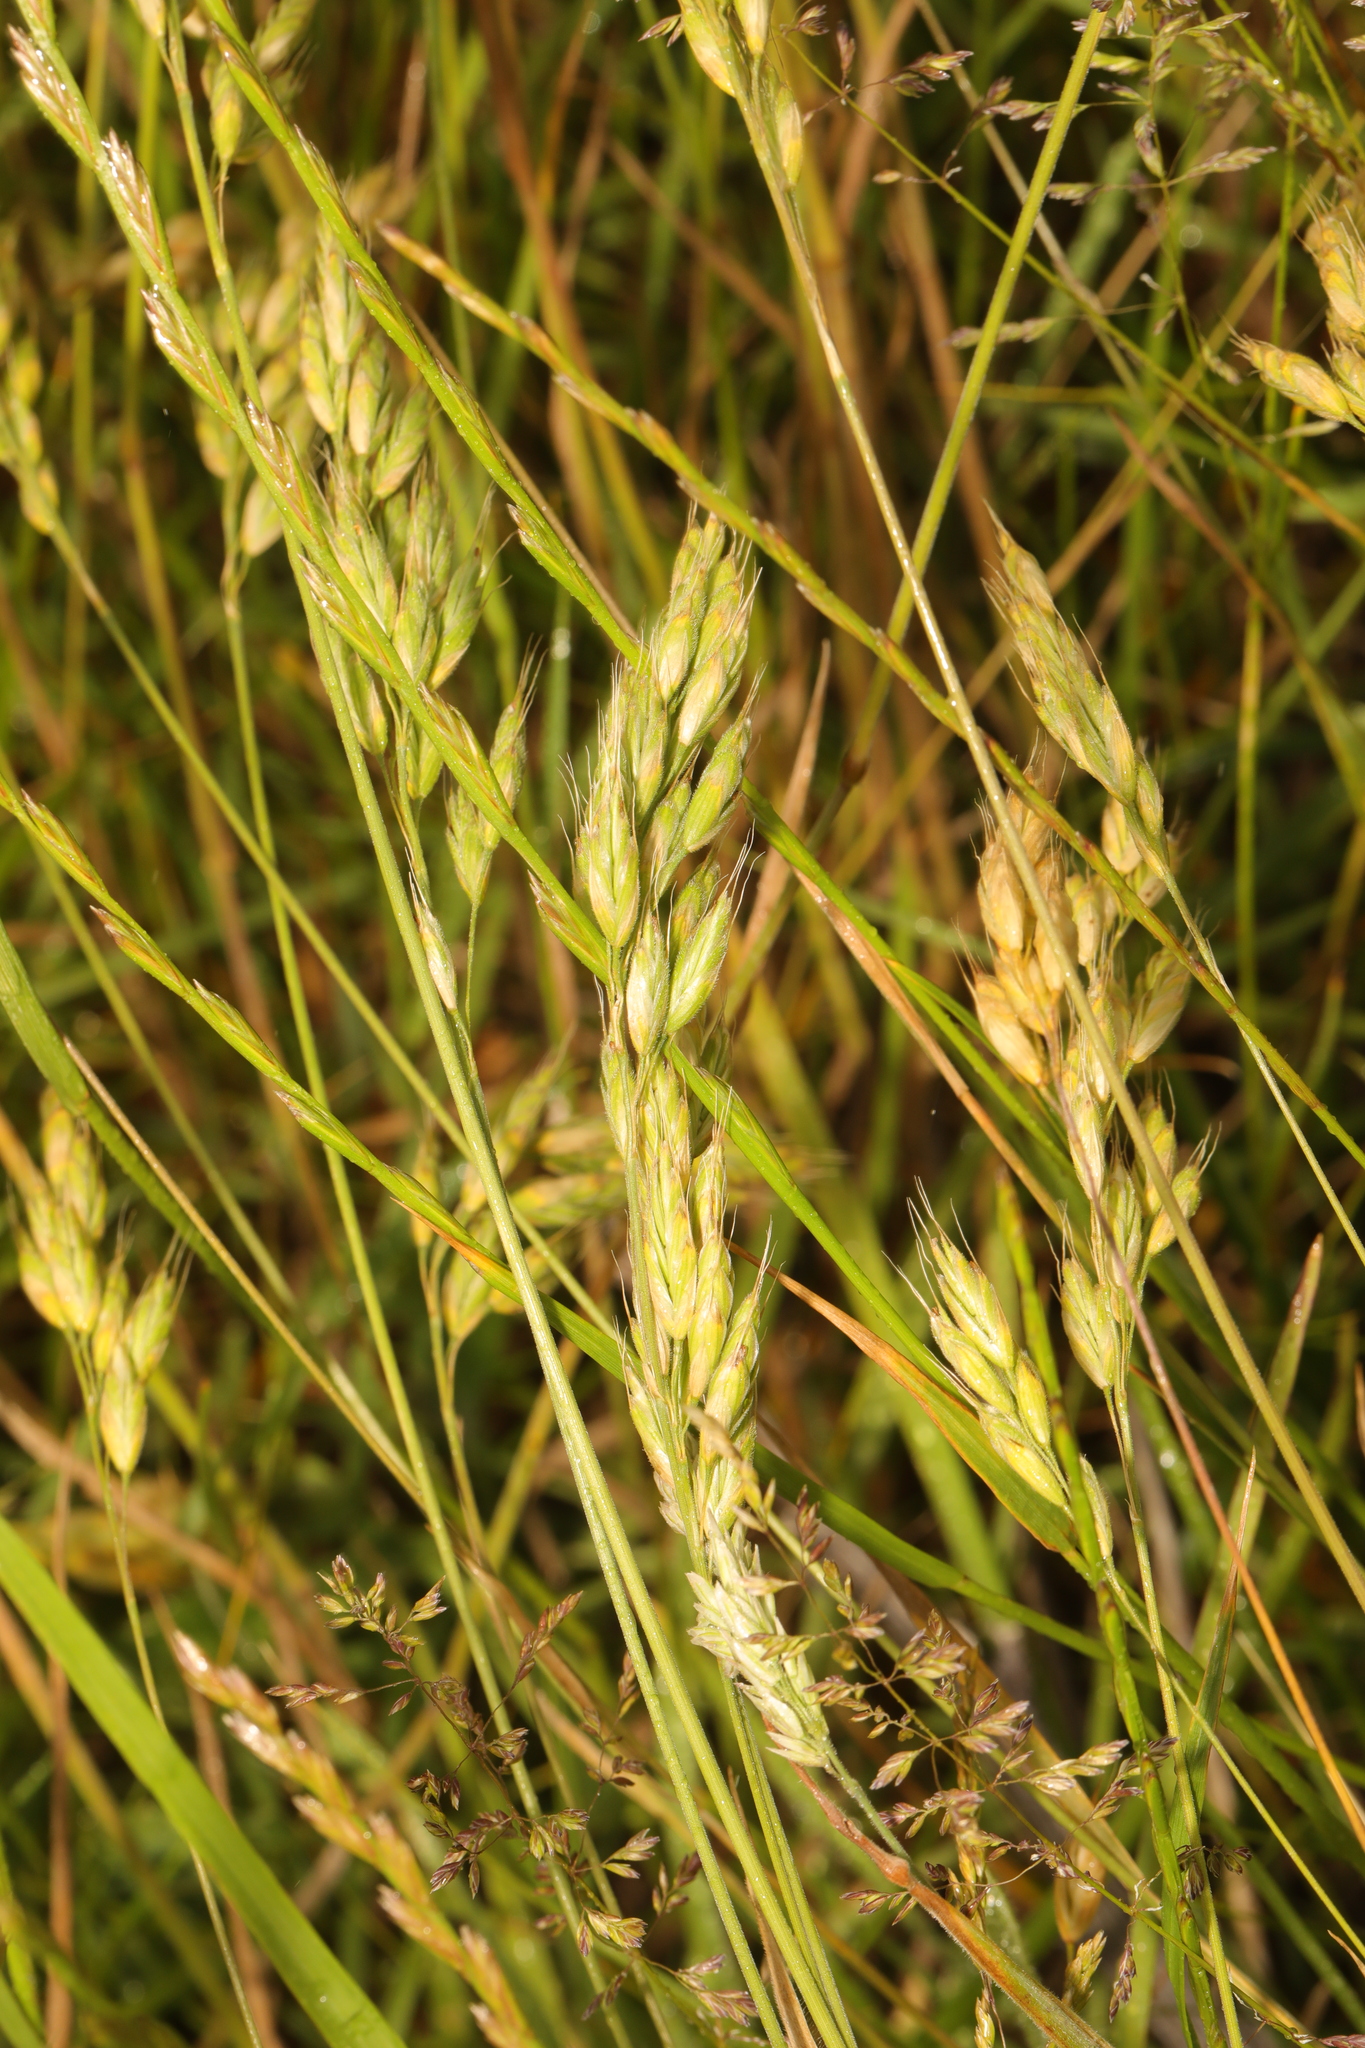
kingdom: Plantae
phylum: Tracheophyta
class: Liliopsida
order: Poales
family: Poaceae
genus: Bromus
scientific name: Bromus hordeaceus
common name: Soft brome
